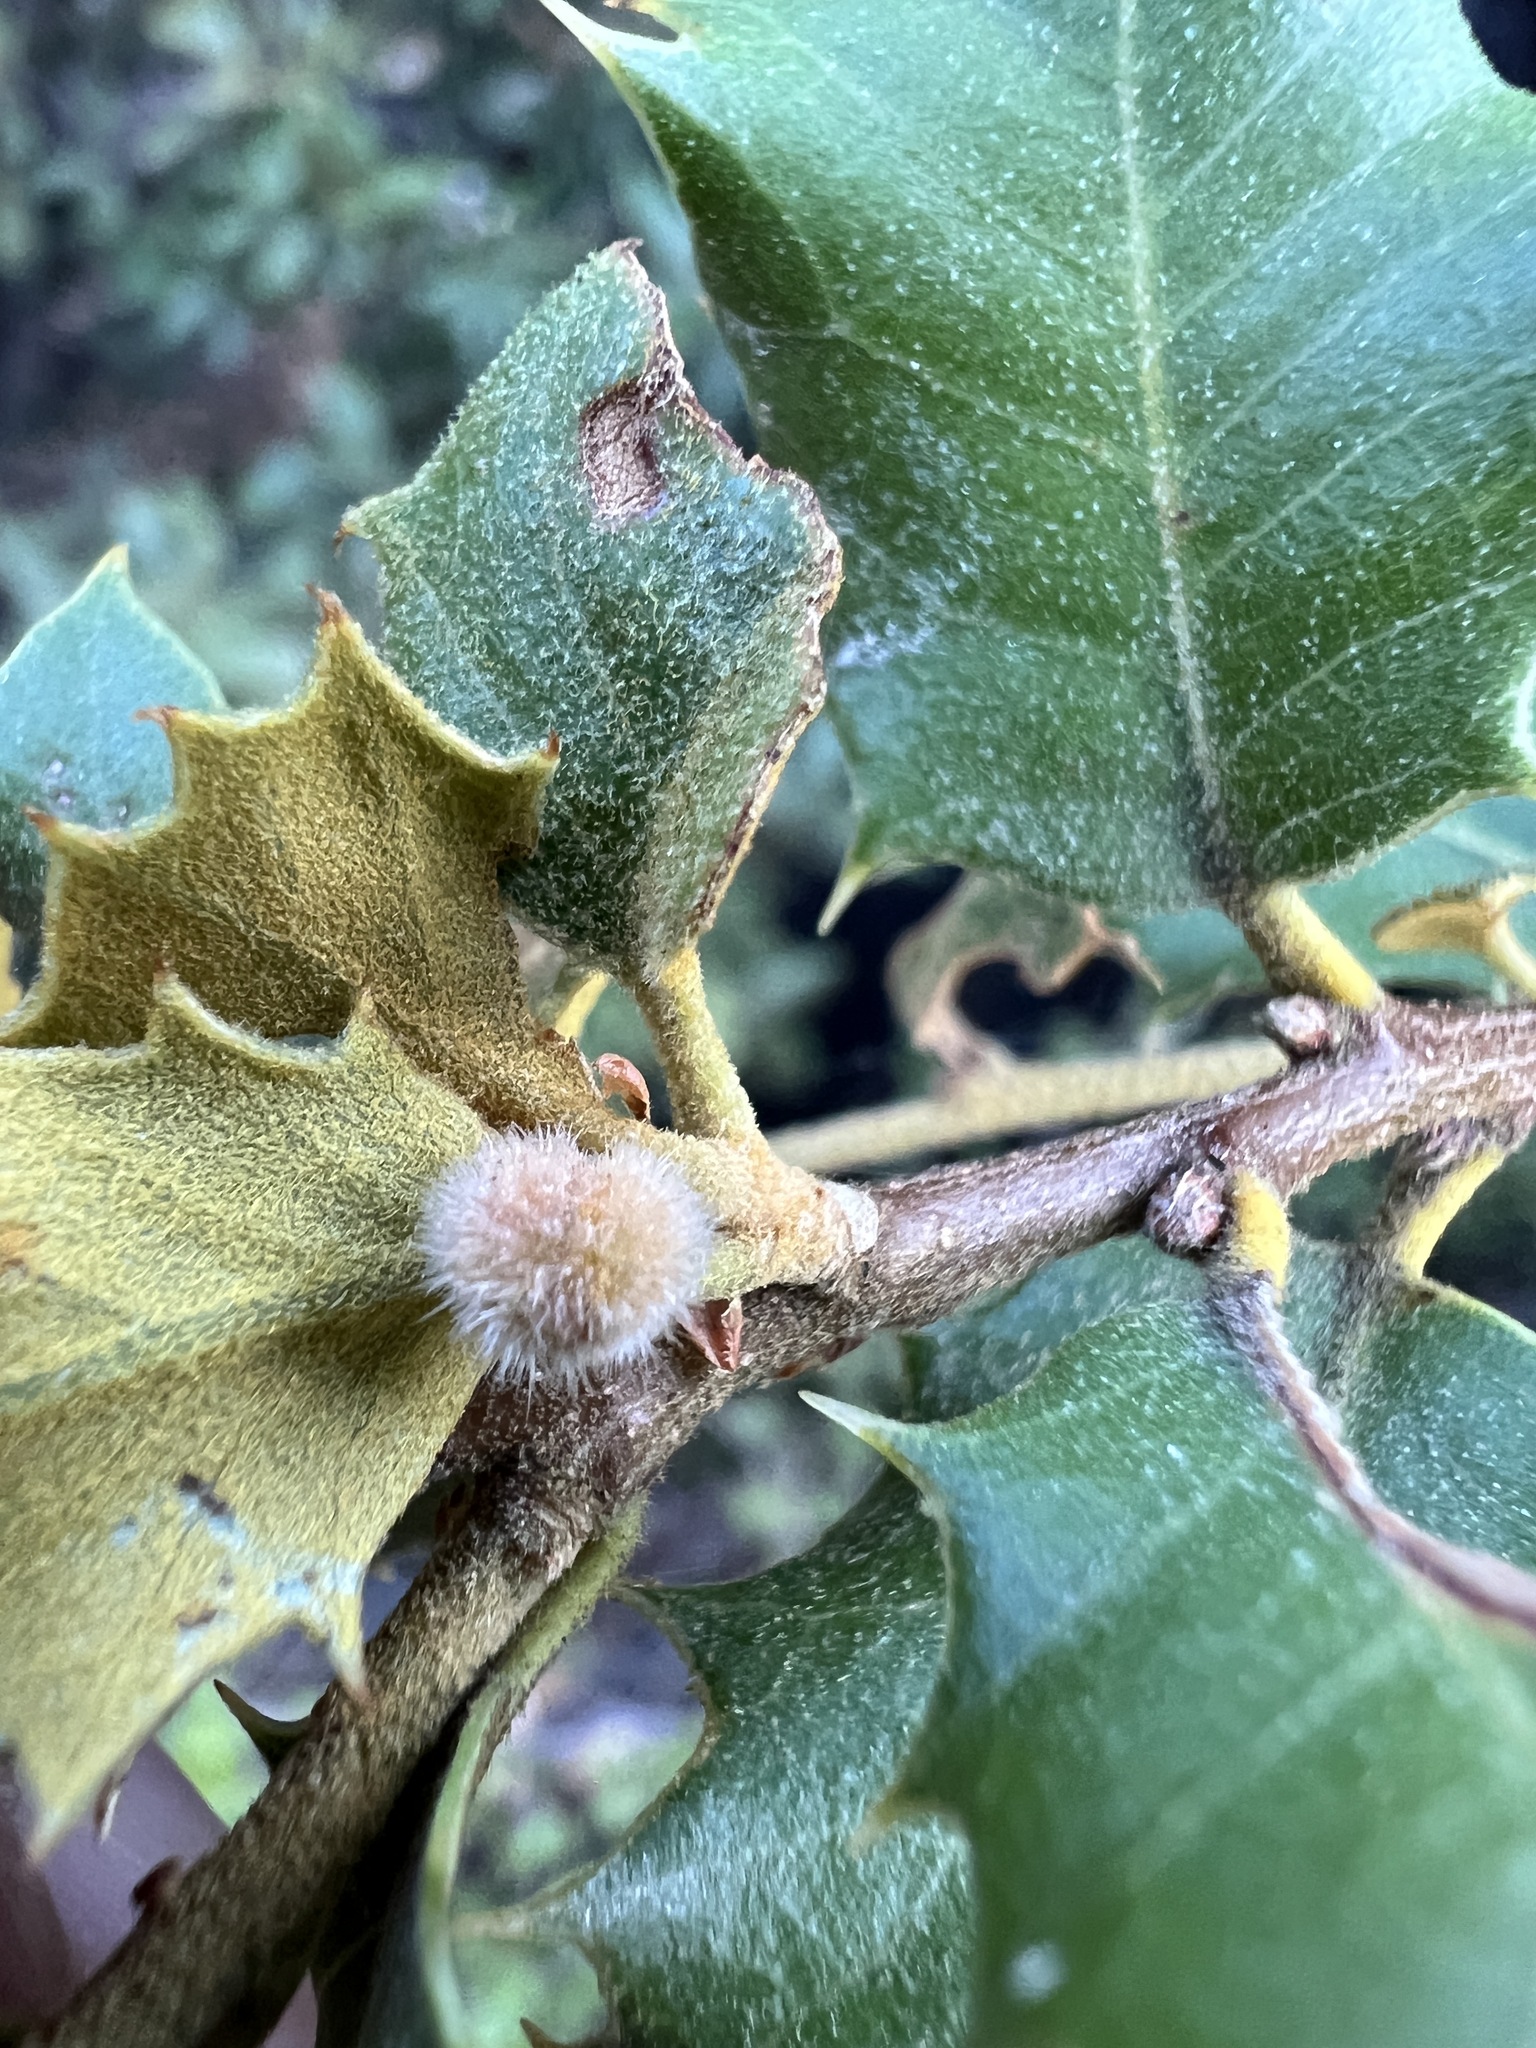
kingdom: Plantae
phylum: Tracheophyta
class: Magnoliopsida
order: Fagales
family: Fagaceae
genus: Quercus
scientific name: Quercus chrysolepis
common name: Canyon live oak
